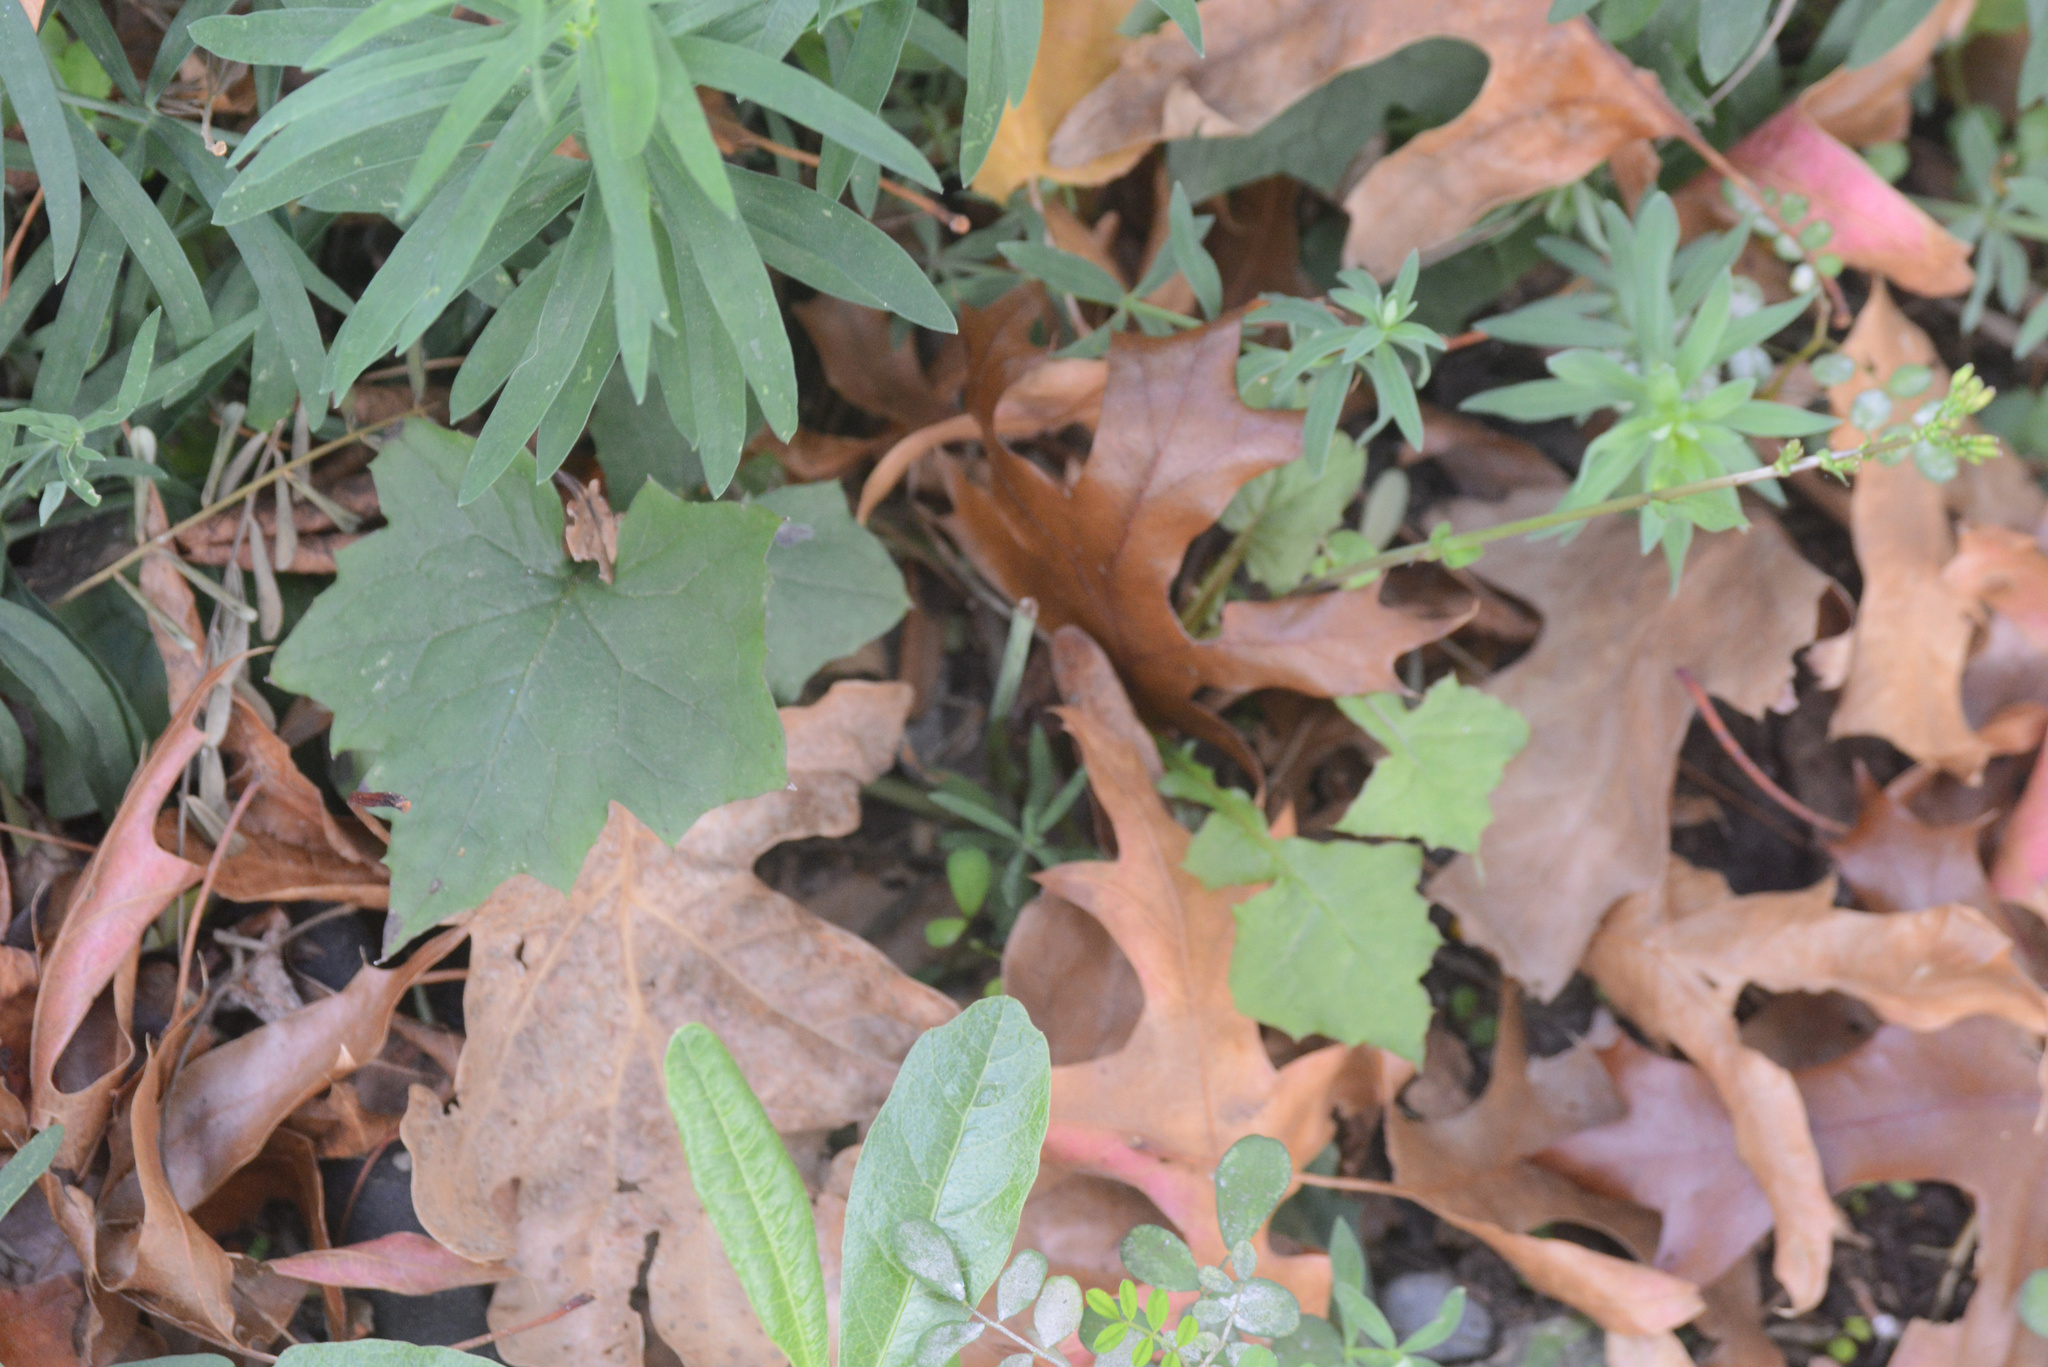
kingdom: Plantae
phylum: Tracheophyta
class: Magnoliopsida
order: Asterales
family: Asteraceae
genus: Mycelis
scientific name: Mycelis muralis
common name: Wall lettuce
